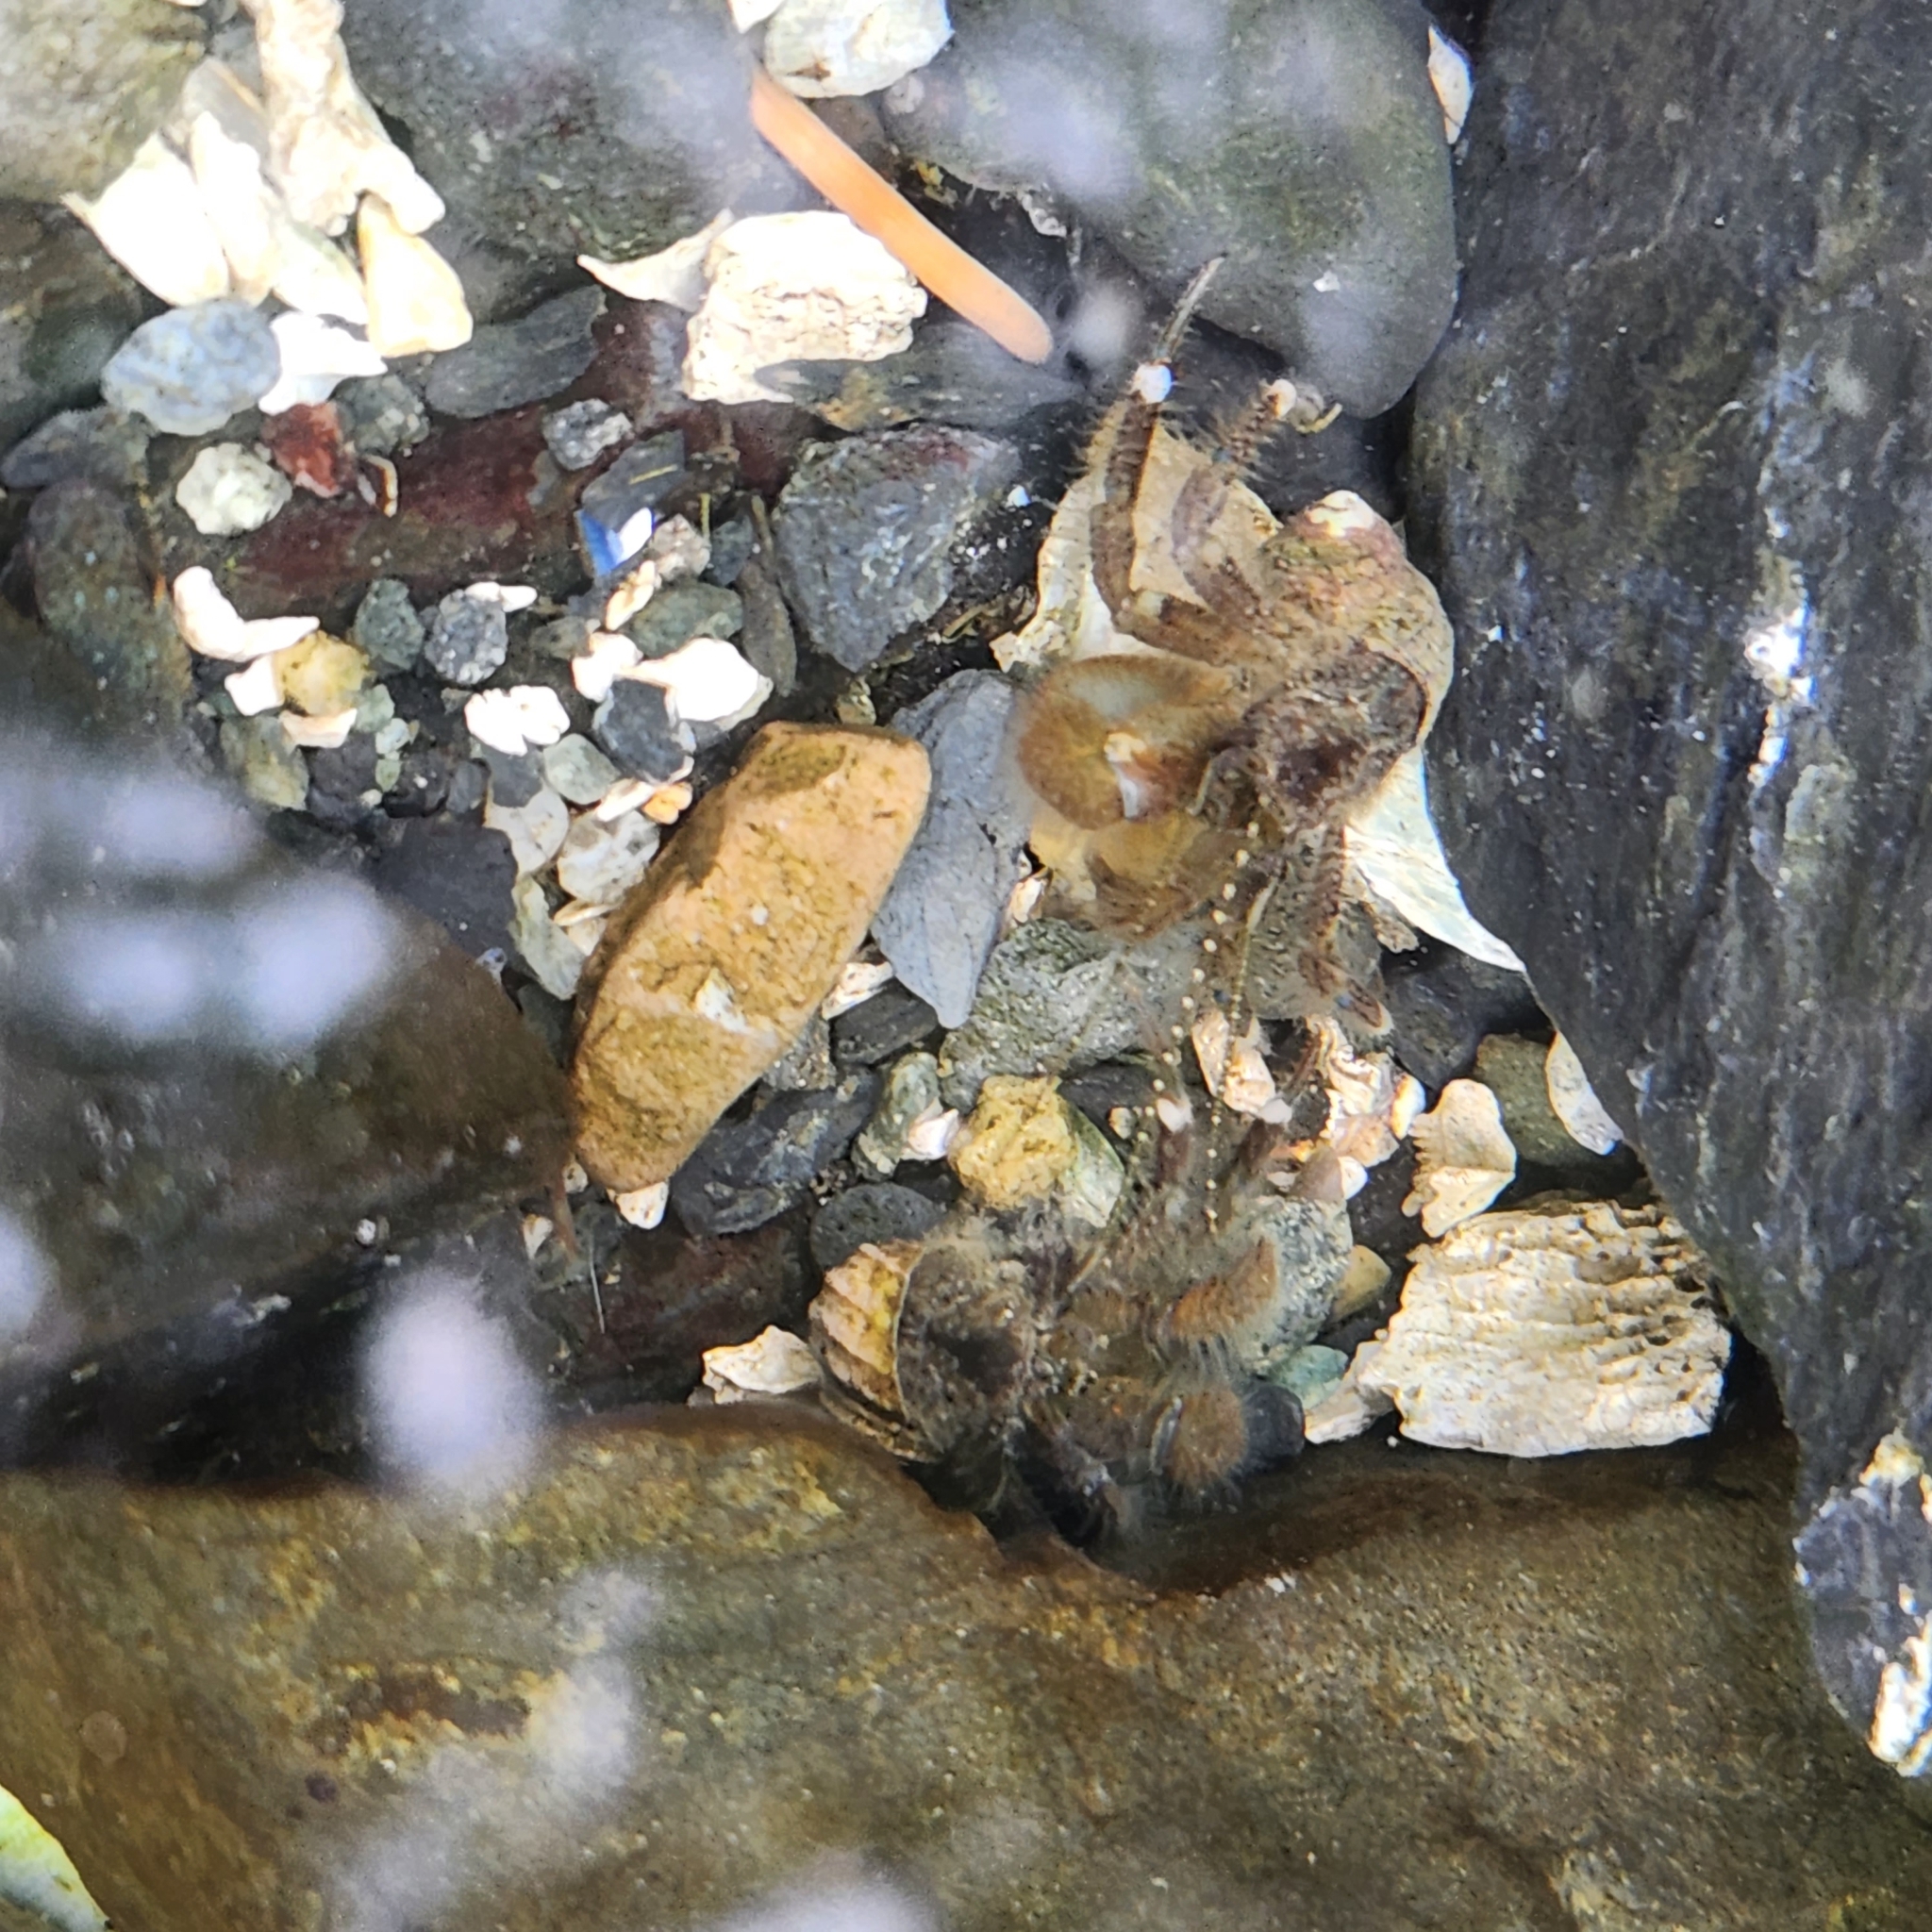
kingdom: Animalia
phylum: Arthropoda
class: Malacostraca
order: Decapoda
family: Paguridae
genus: Pagurus
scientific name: Pagurus hirsutiusculus
